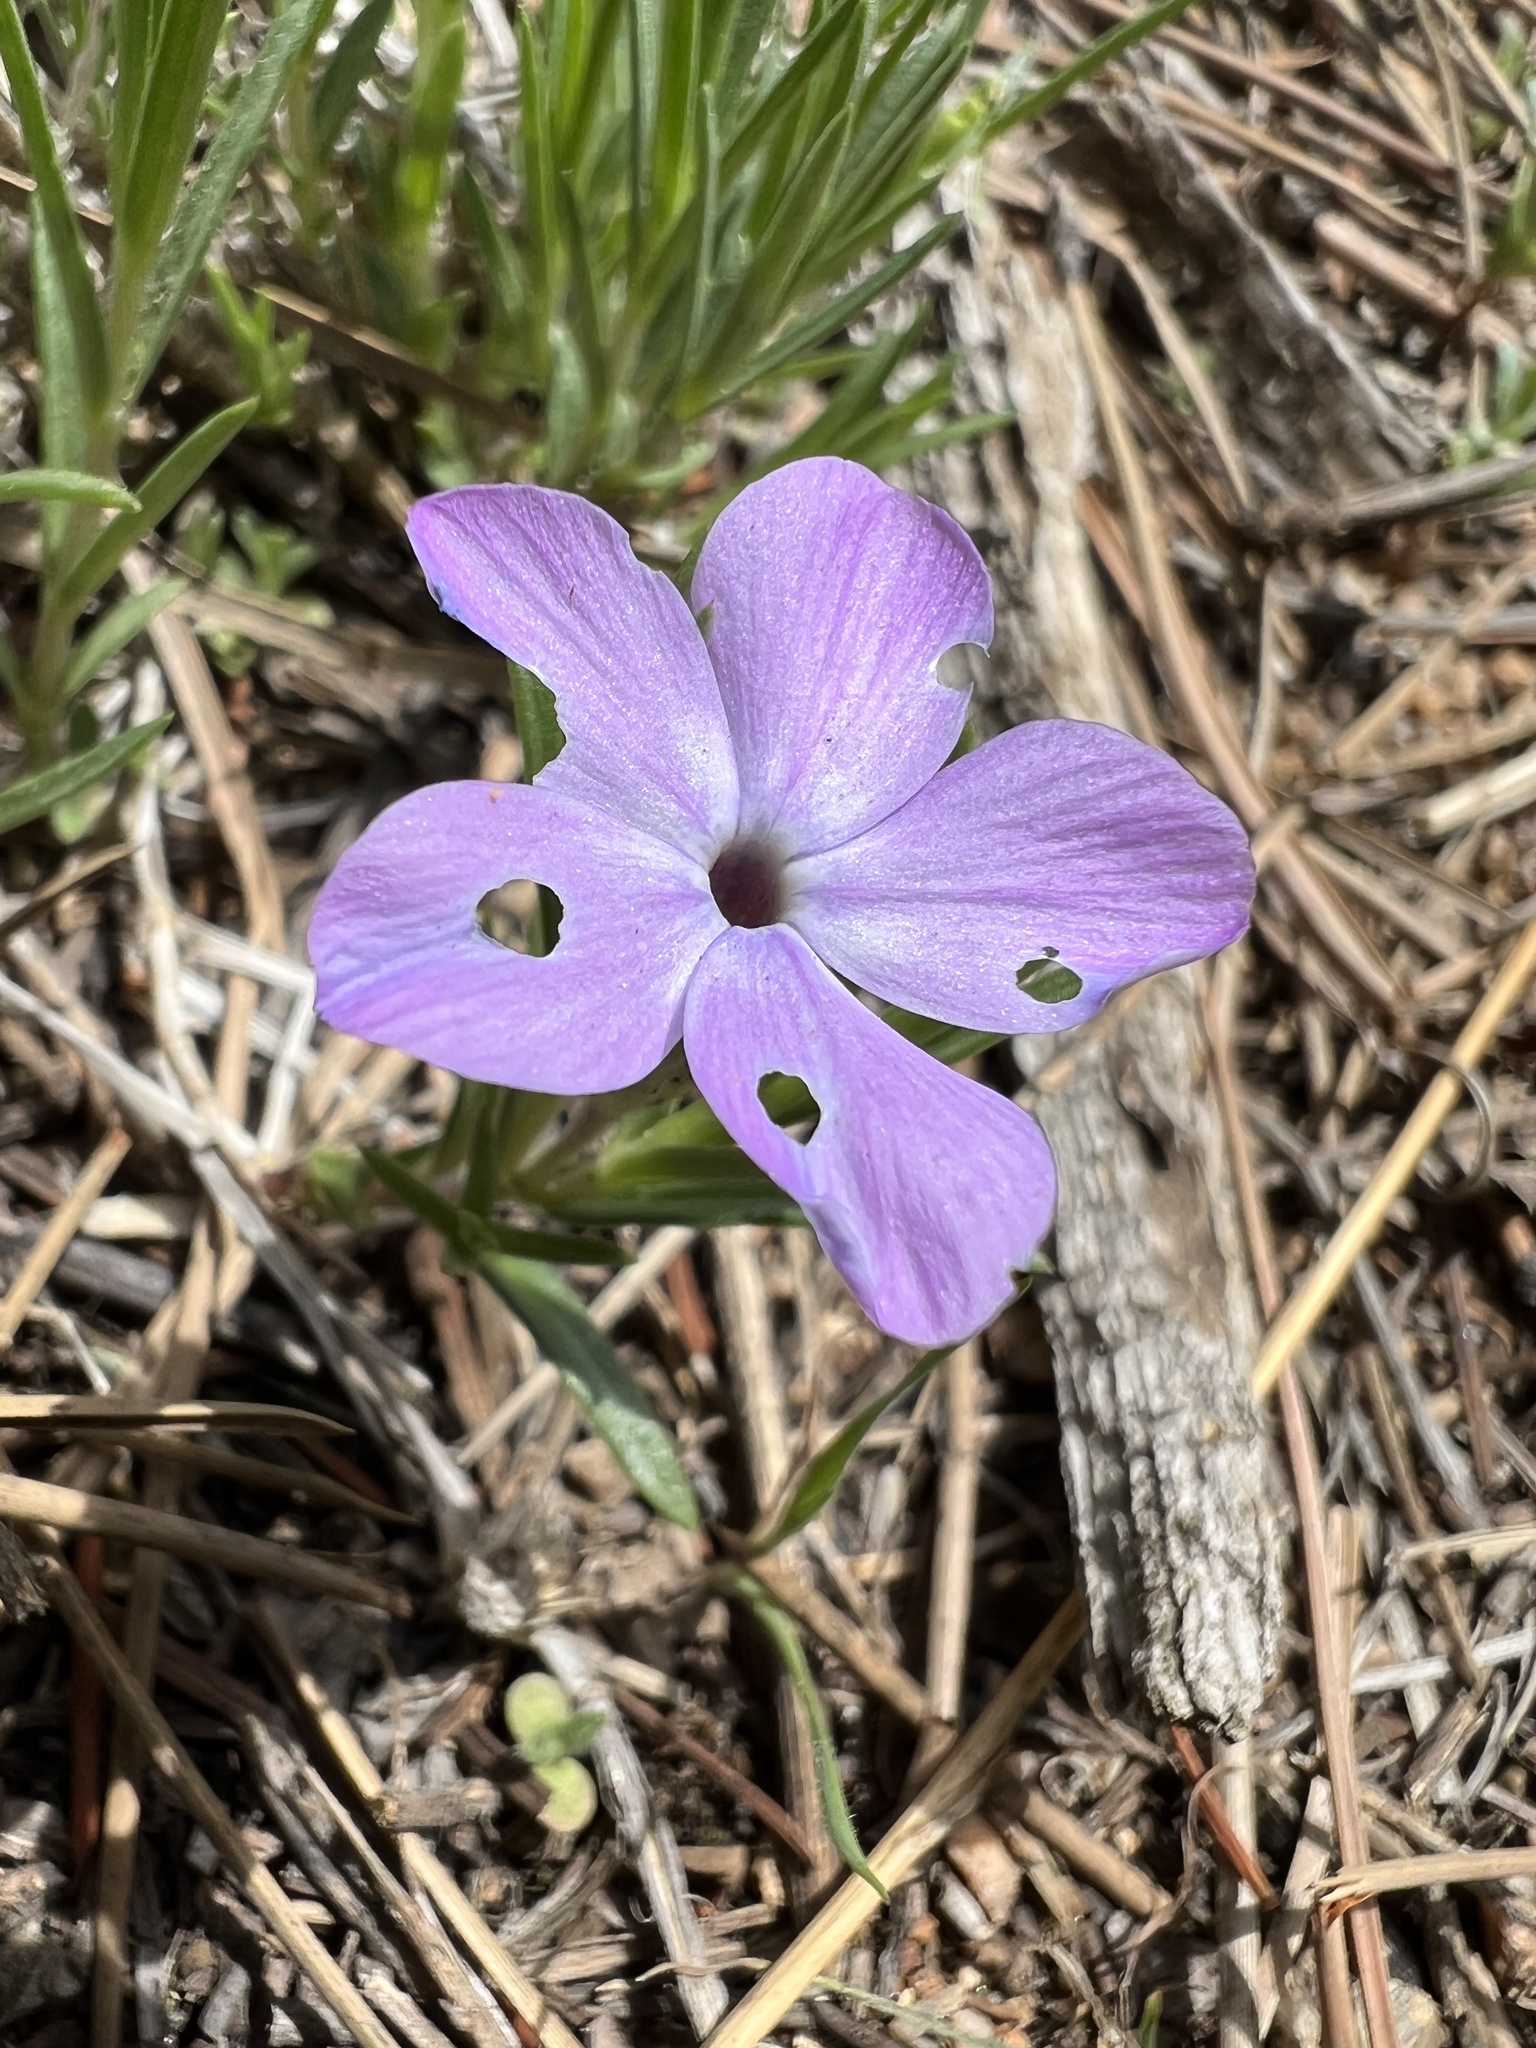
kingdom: Plantae
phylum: Tracheophyta
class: Magnoliopsida
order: Ericales
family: Polemoniaceae
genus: Phlox
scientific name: Phlox multiflora
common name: Rocky mountain phlox
